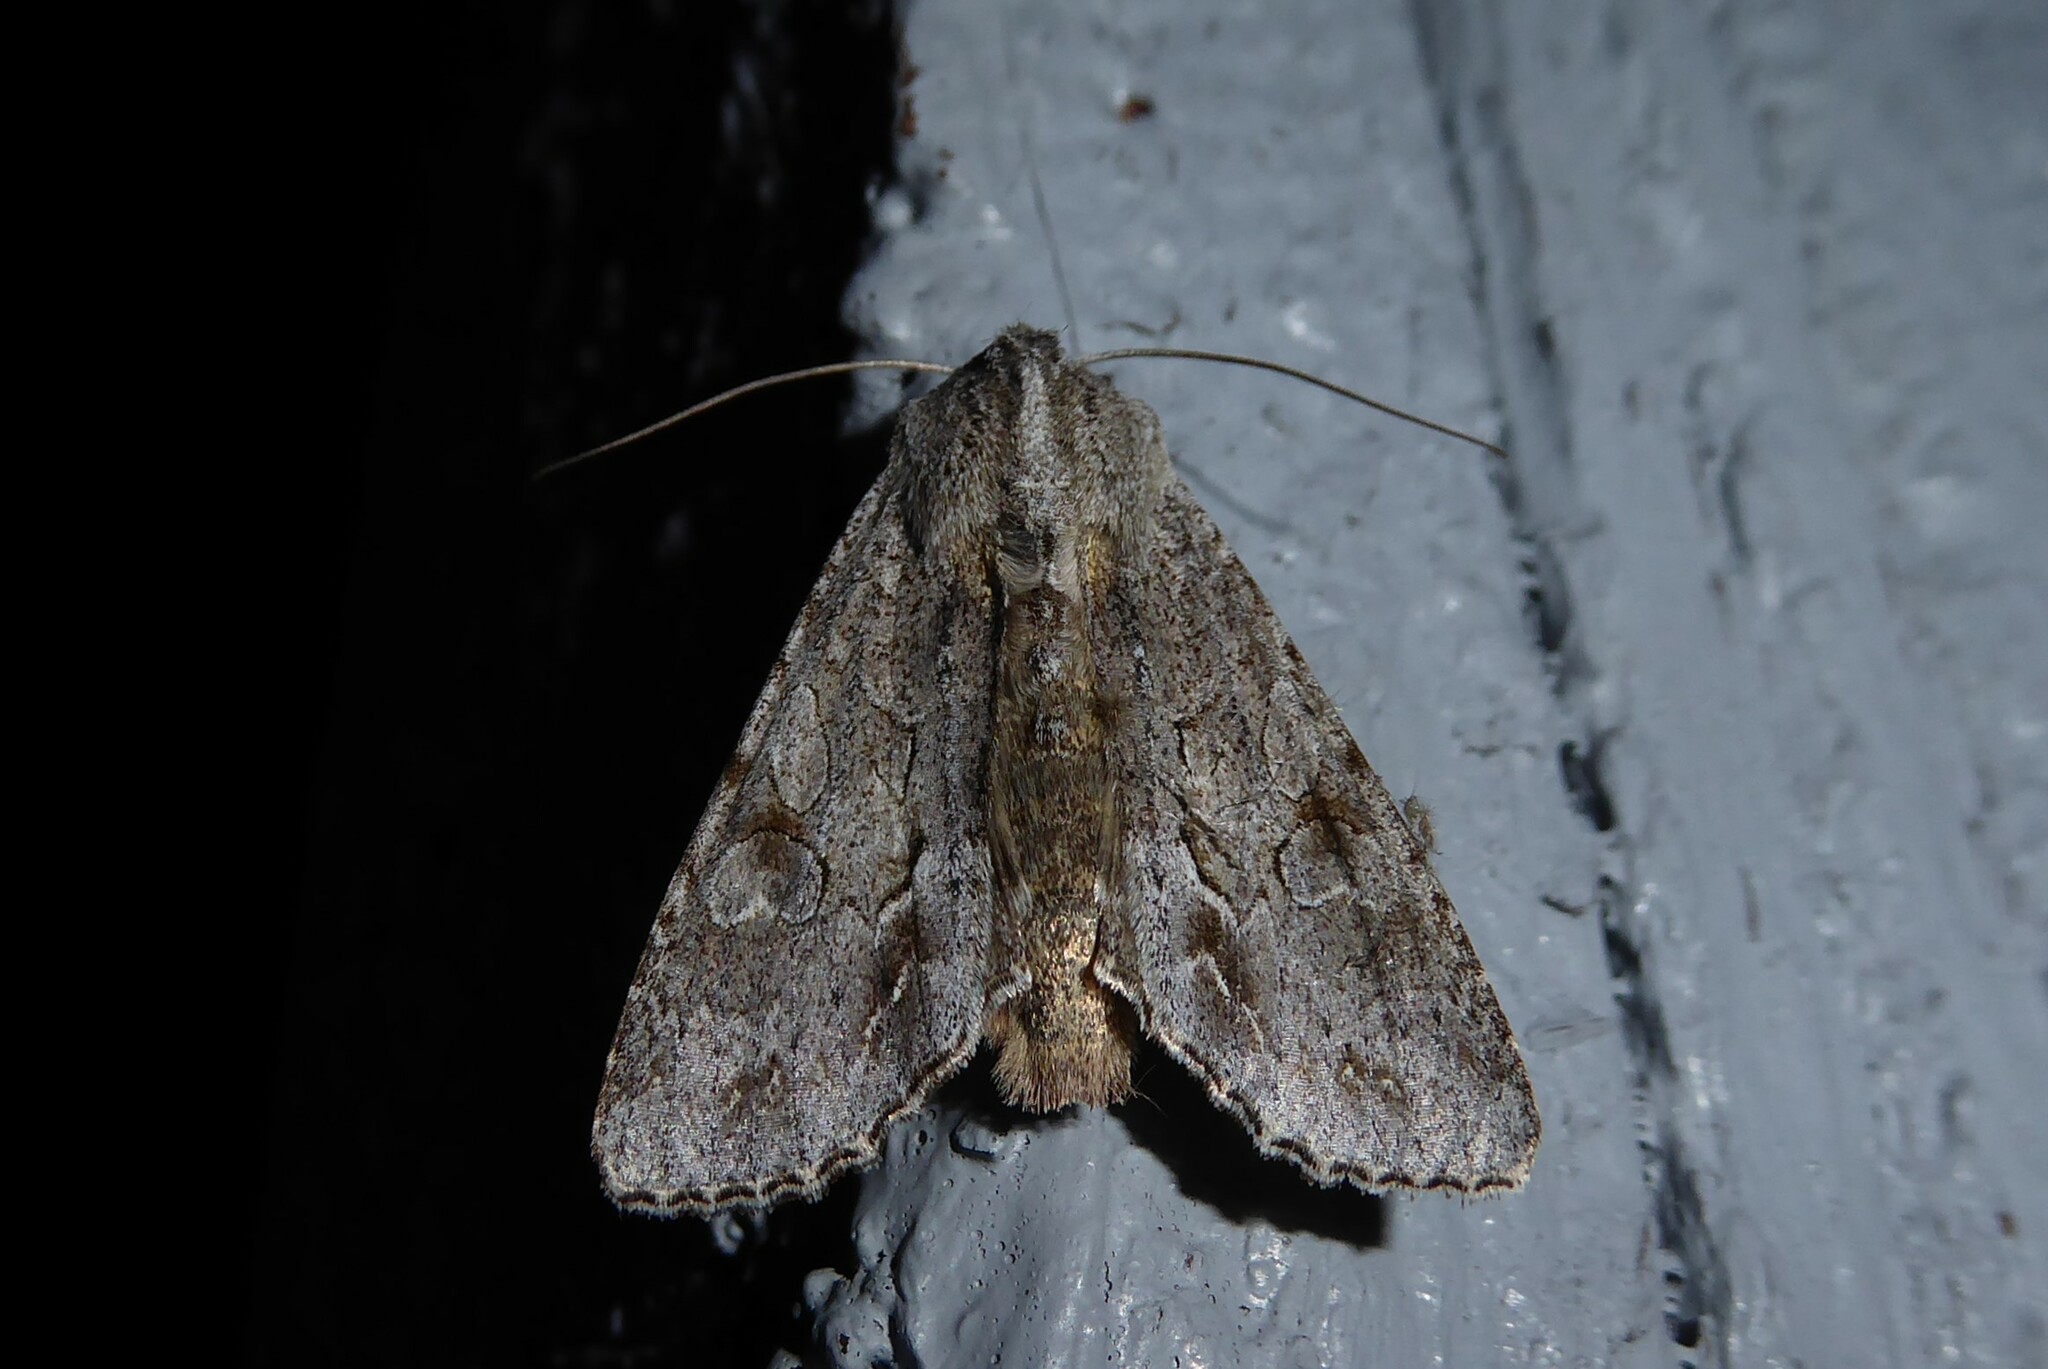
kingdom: Animalia
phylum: Arthropoda
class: Insecta
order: Lepidoptera
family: Noctuidae
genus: Ichneutica
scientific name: Ichneutica
